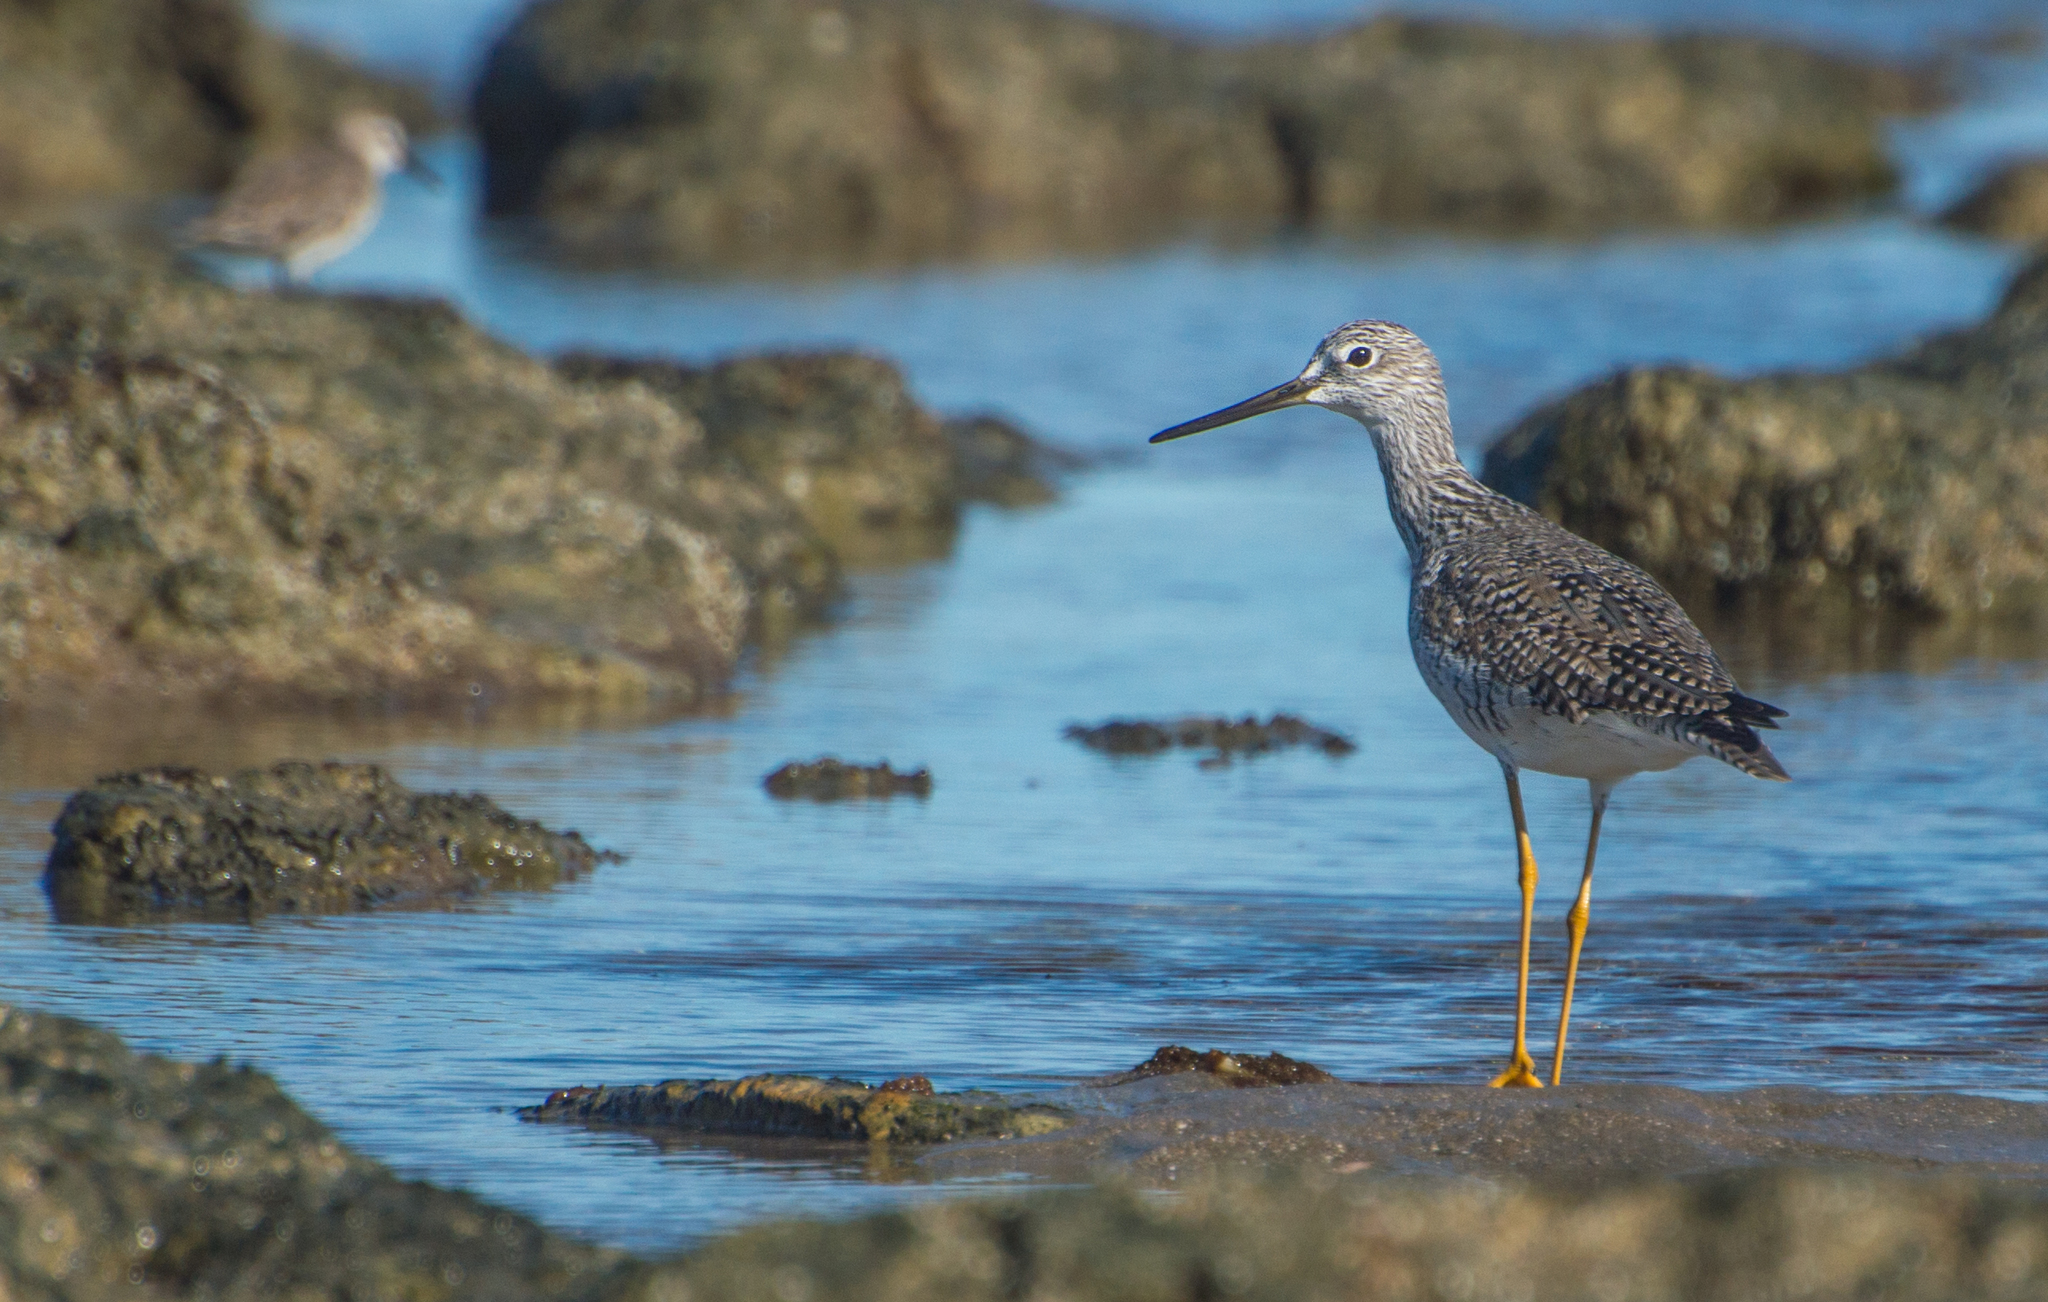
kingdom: Animalia
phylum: Chordata
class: Aves
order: Charadriiformes
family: Scolopacidae
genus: Tringa
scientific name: Tringa melanoleuca
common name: Greater yellowlegs
